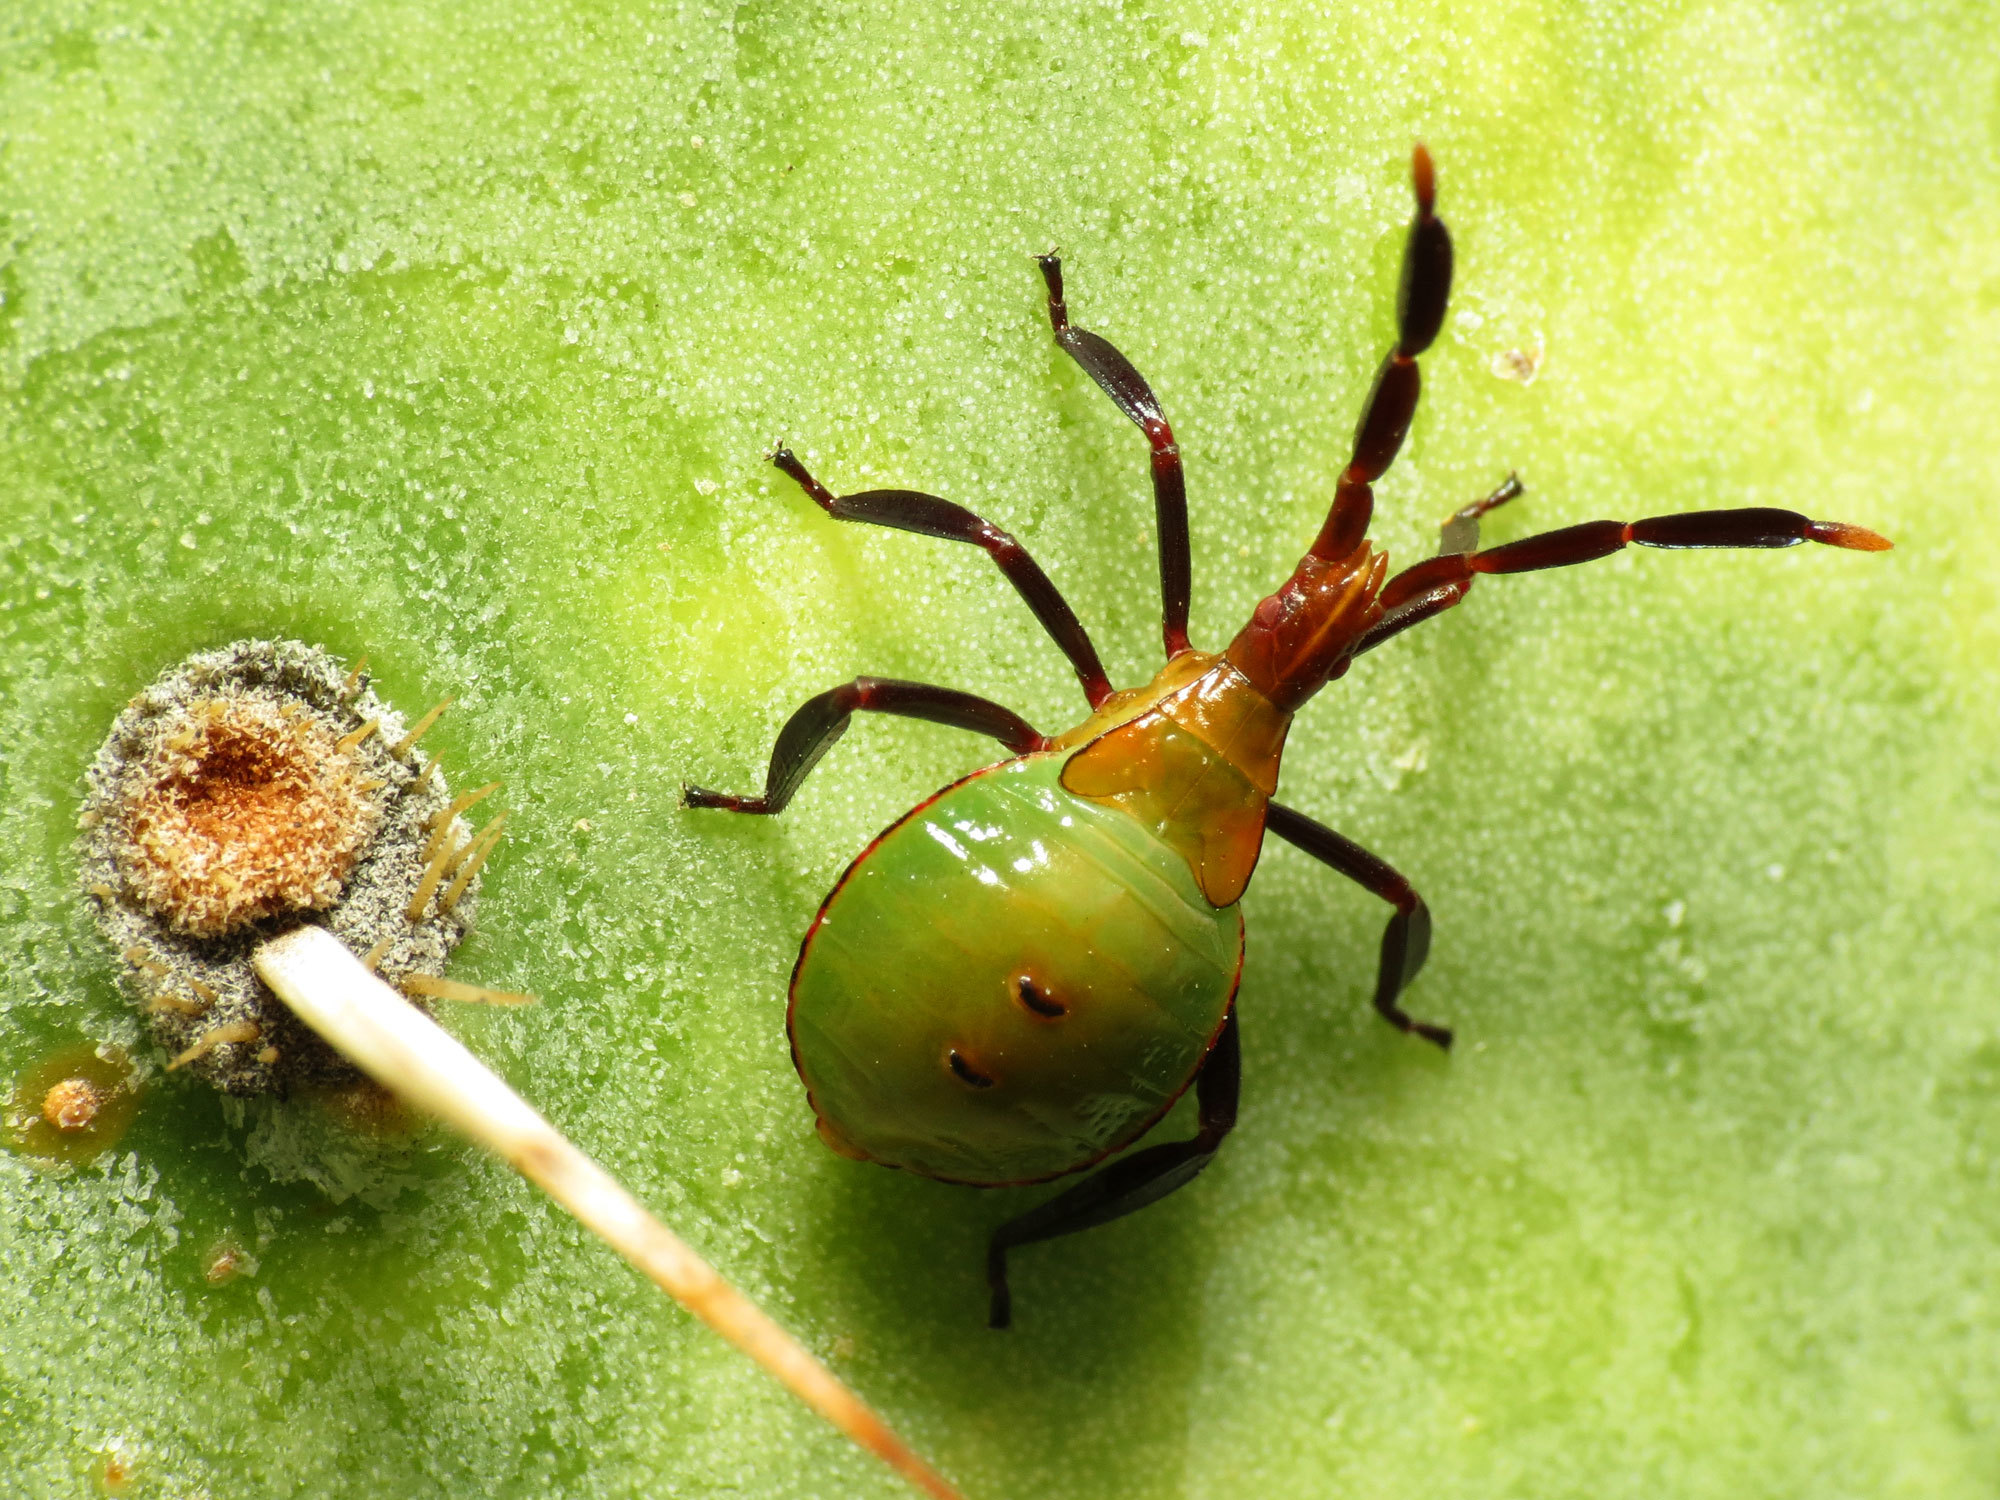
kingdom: Animalia
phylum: Arthropoda
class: Insecta
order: Hemiptera
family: Coreidae
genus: Chelinidea
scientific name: Chelinidea vittiger
